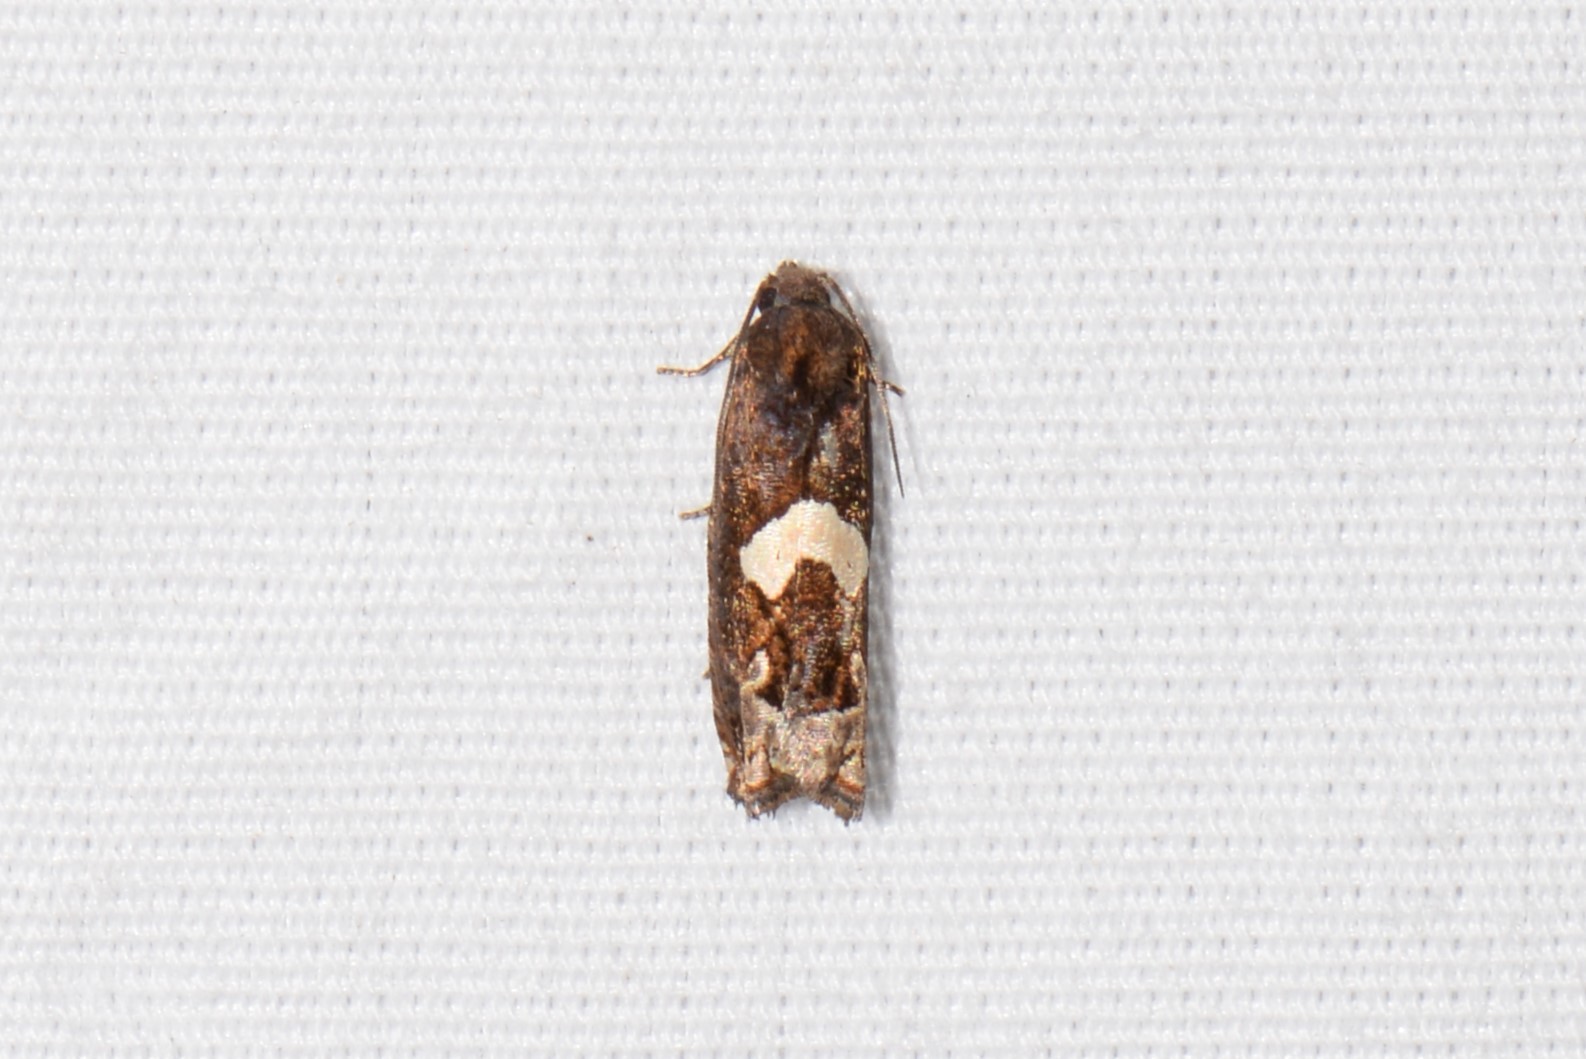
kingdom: Animalia
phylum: Arthropoda
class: Insecta
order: Lepidoptera
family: Tortricidae
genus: Epiblema
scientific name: Epiblema otiosana
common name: Bidens borer moth
